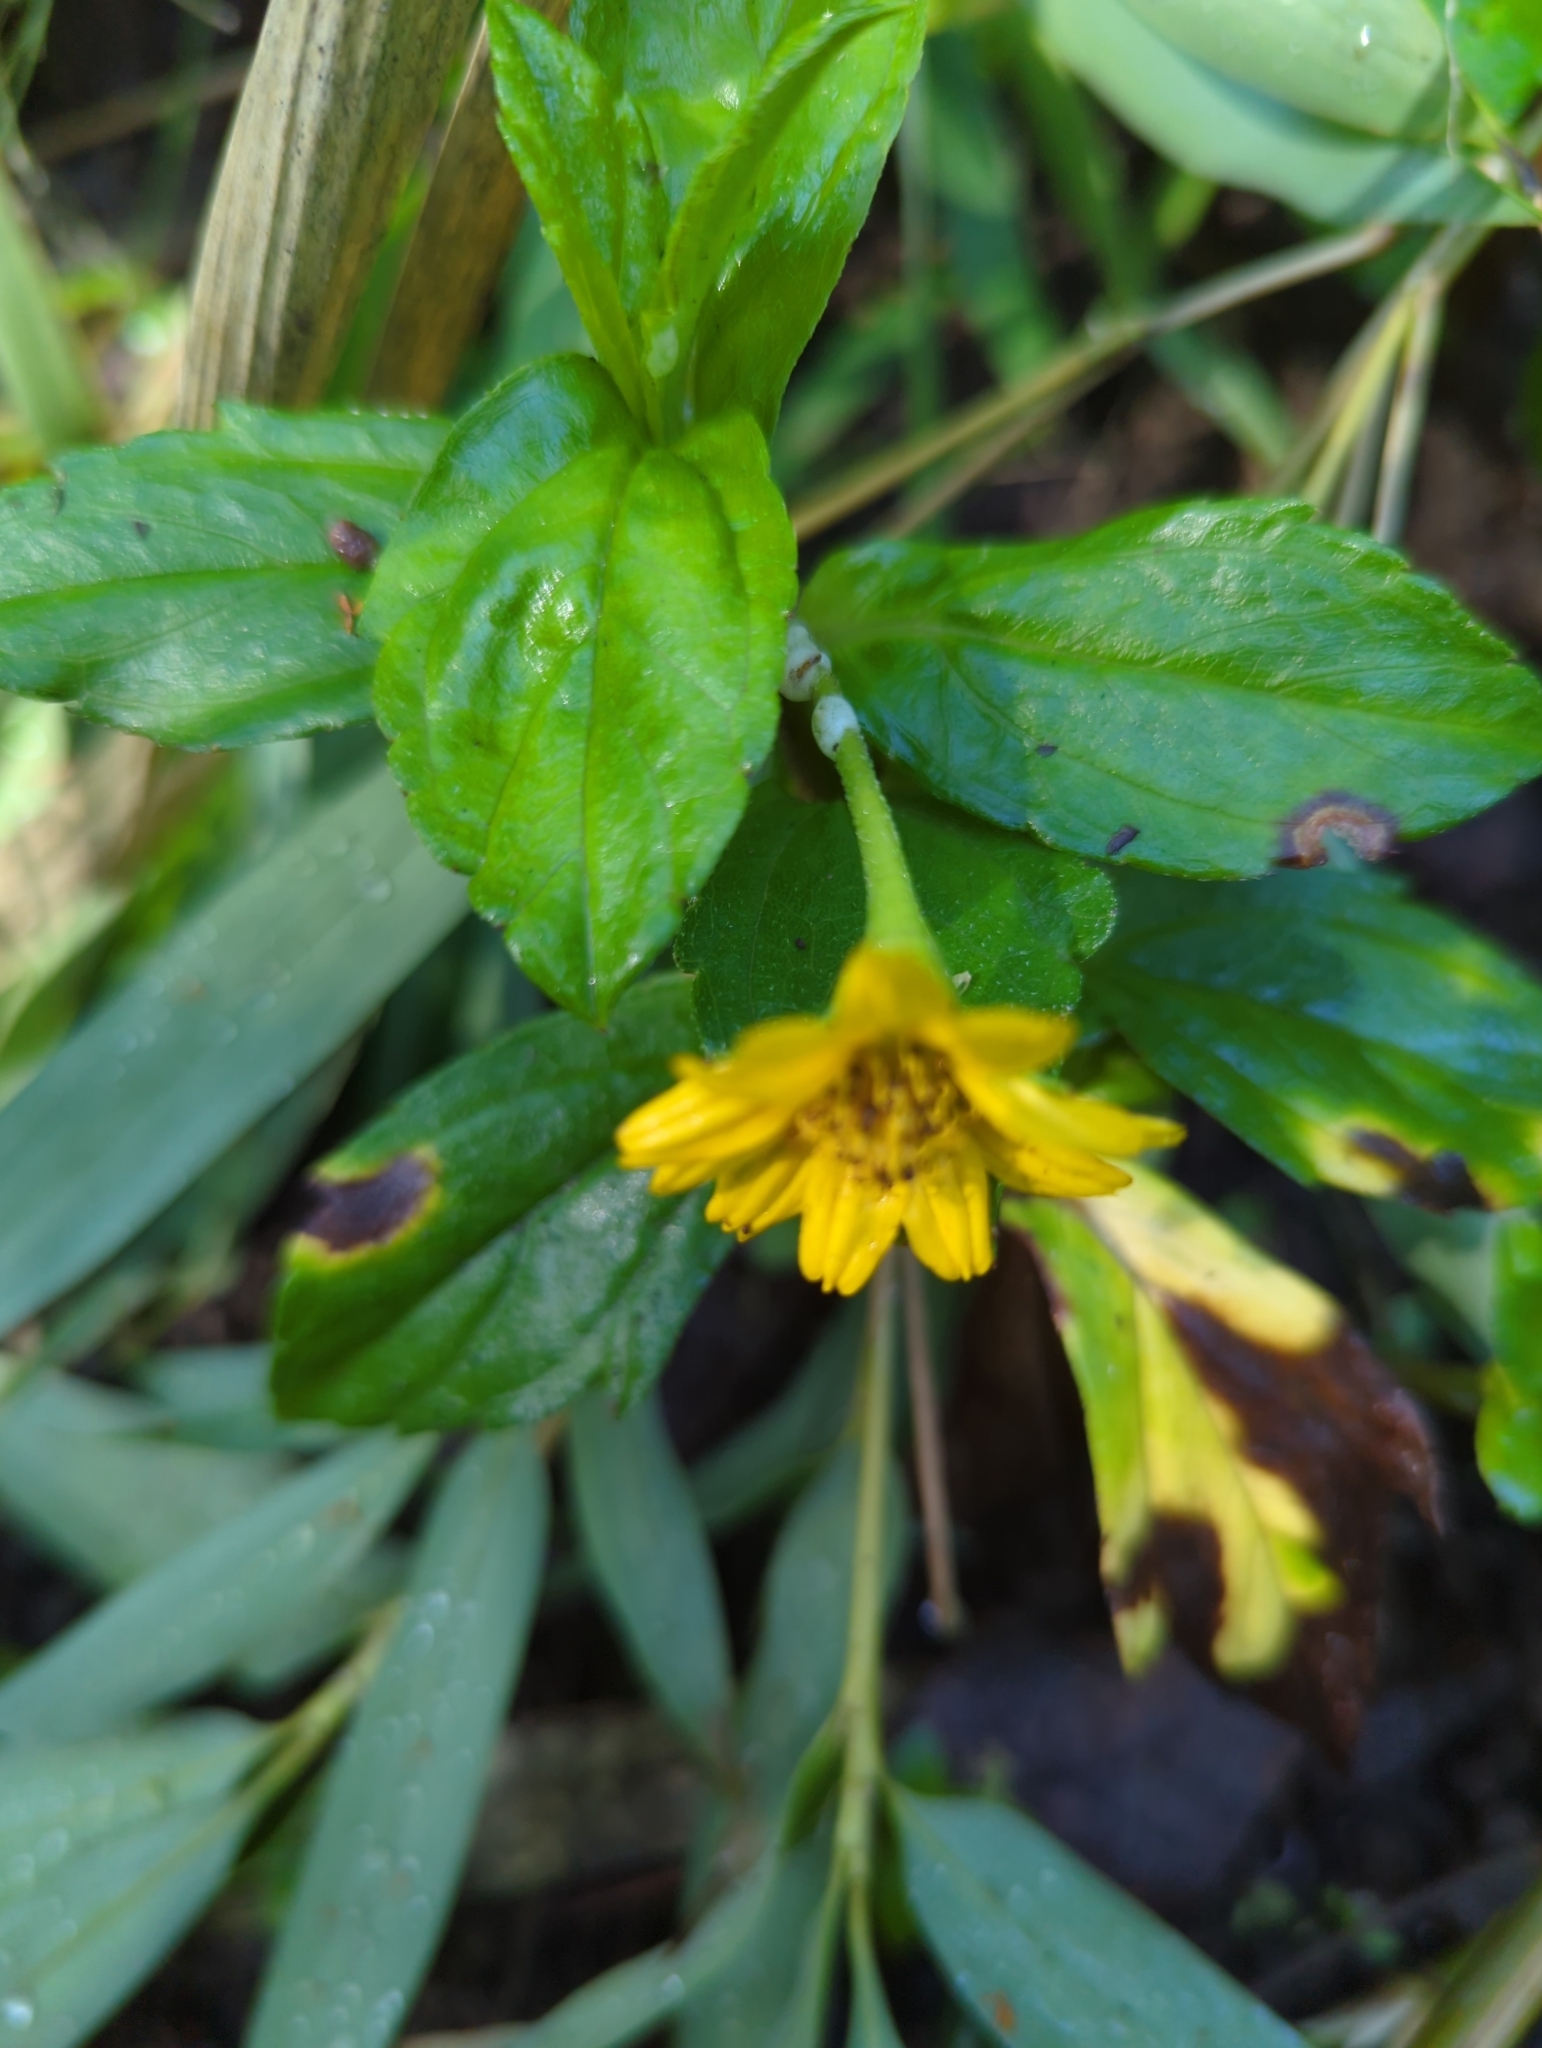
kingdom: Plantae
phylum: Tracheophyta
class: Magnoliopsida
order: Asterales
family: Asteraceae
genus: Sphagneticola
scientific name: Sphagneticola trilobata
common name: Bay biscayne creeping-oxeye
